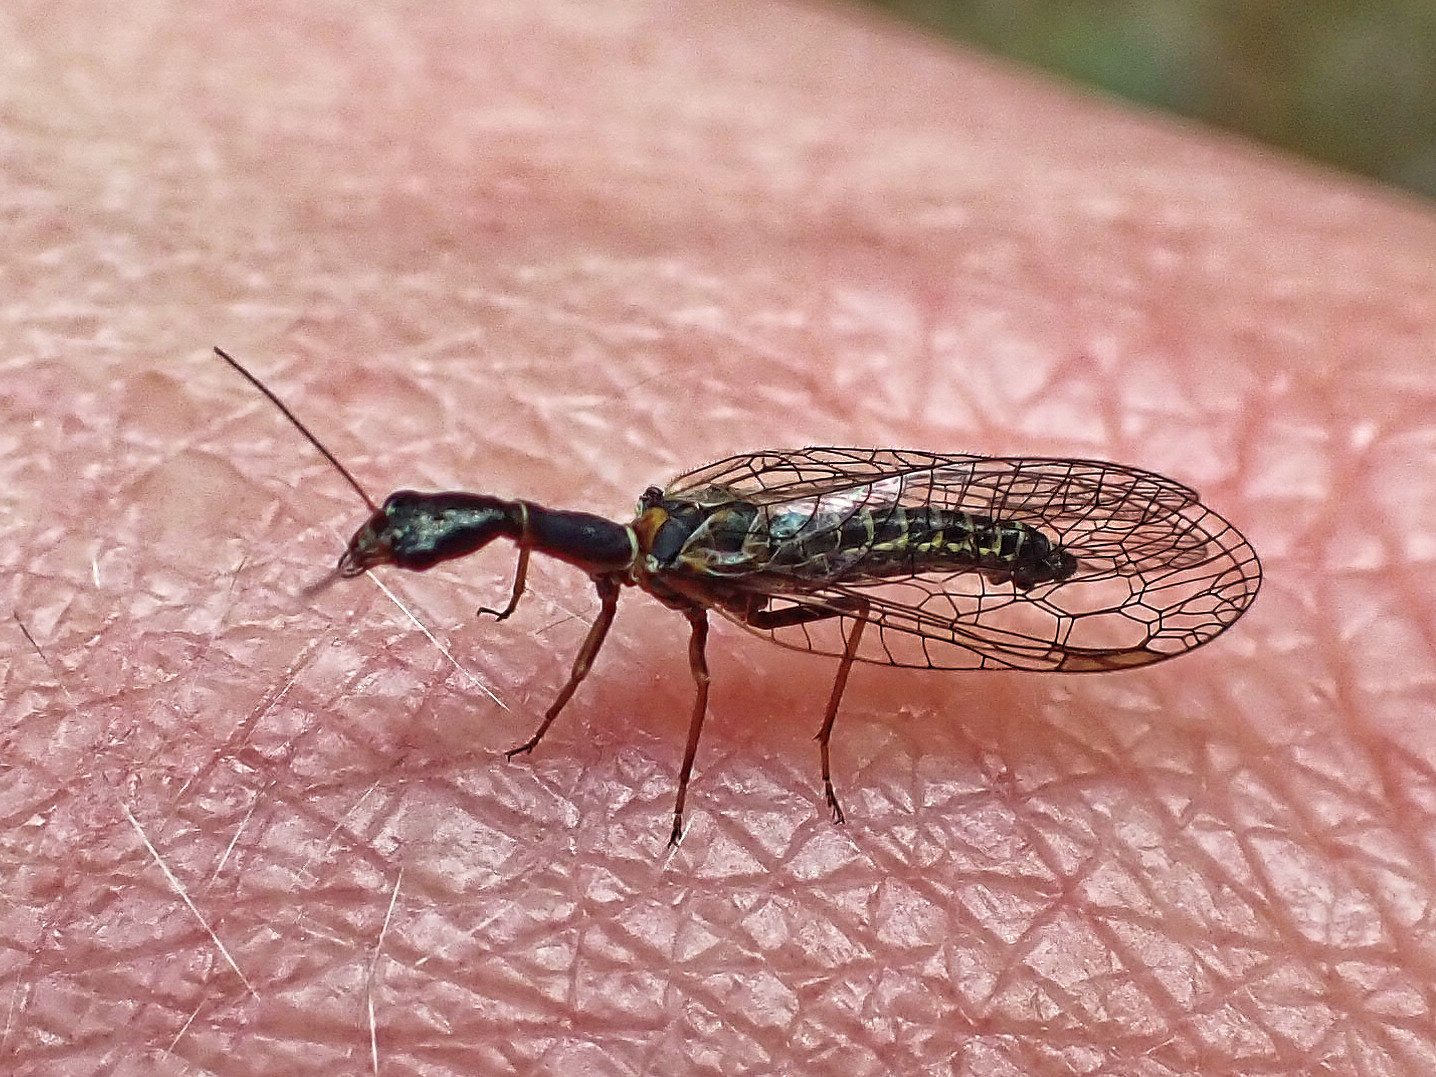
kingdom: Animalia
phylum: Arthropoda
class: Insecta
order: Raphidioptera
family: Raphidiidae
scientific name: Raphidiidae
